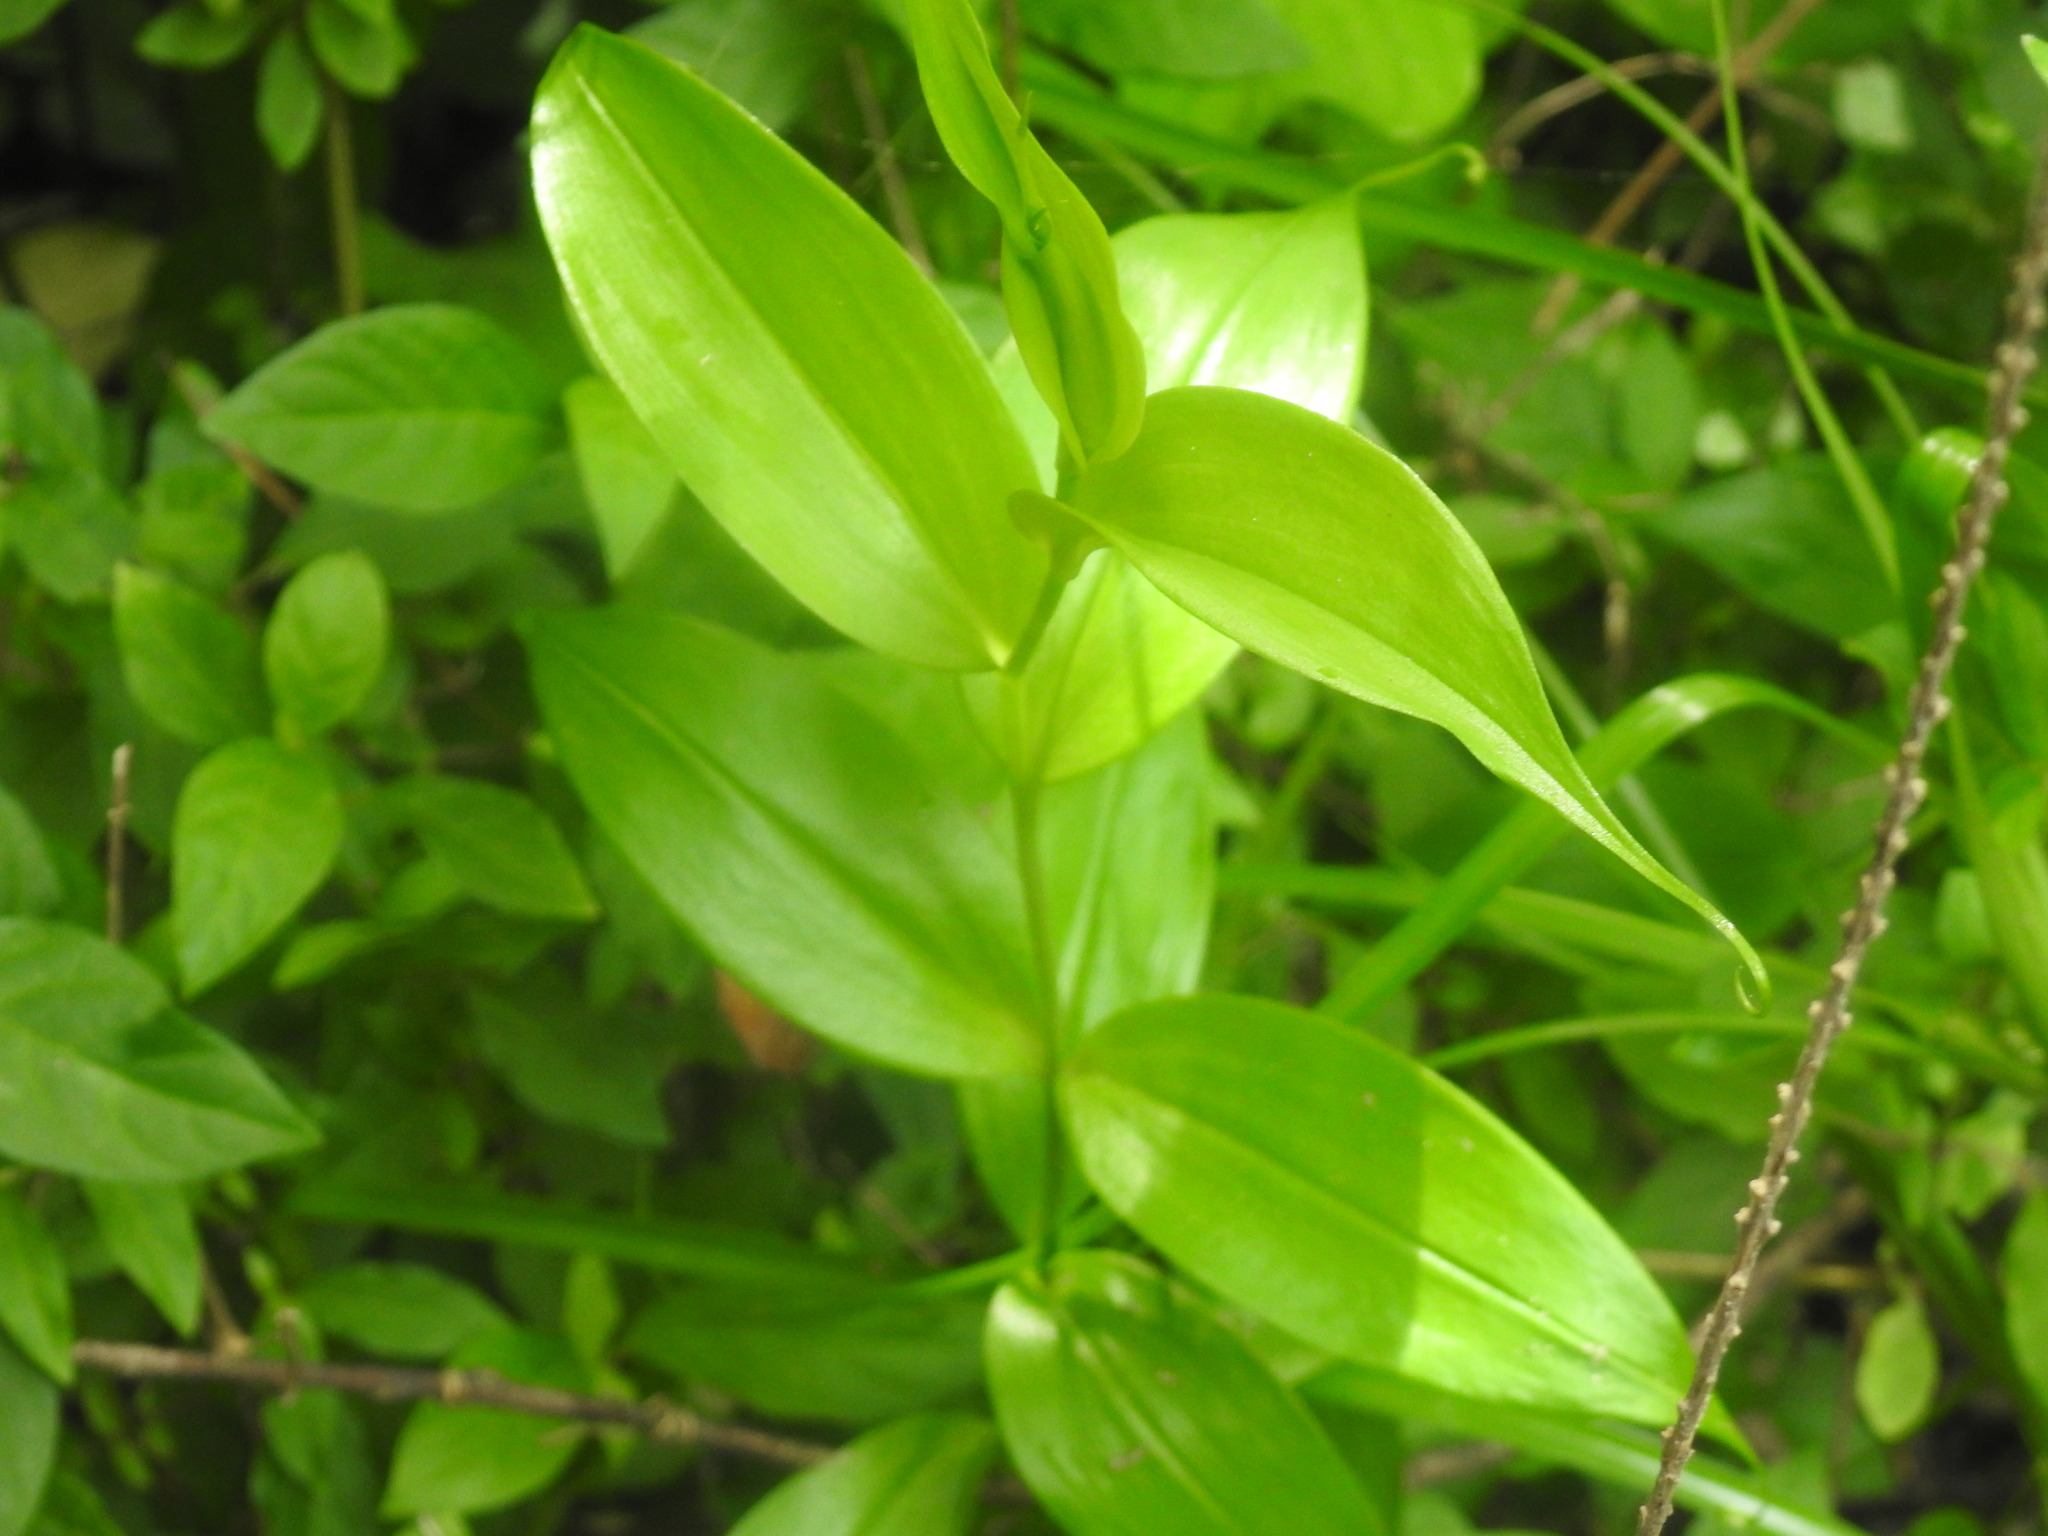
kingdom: Plantae
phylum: Tracheophyta
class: Liliopsida
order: Liliales
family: Colchicaceae
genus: Gloriosa
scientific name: Gloriosa superba
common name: Flame lily
